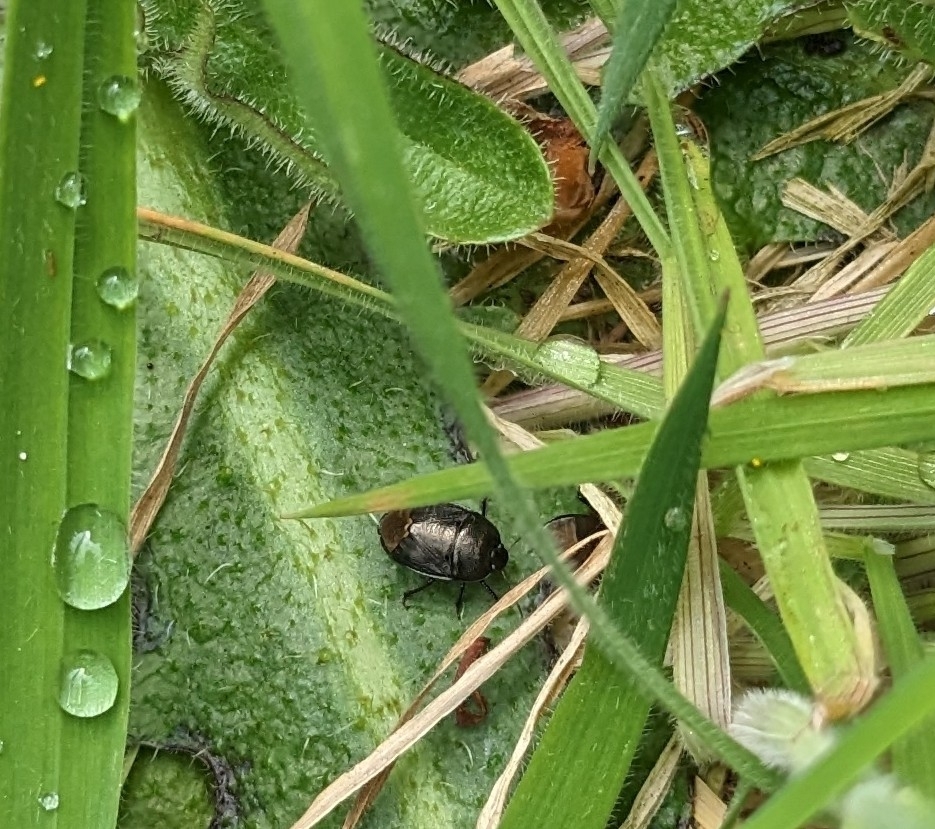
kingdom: Animalia
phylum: Arthropoda
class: Insecta
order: Hemiptera
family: Cydnidae
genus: Sehirus
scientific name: Sehirus luctuosus
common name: Forget-me-not shieldbug
